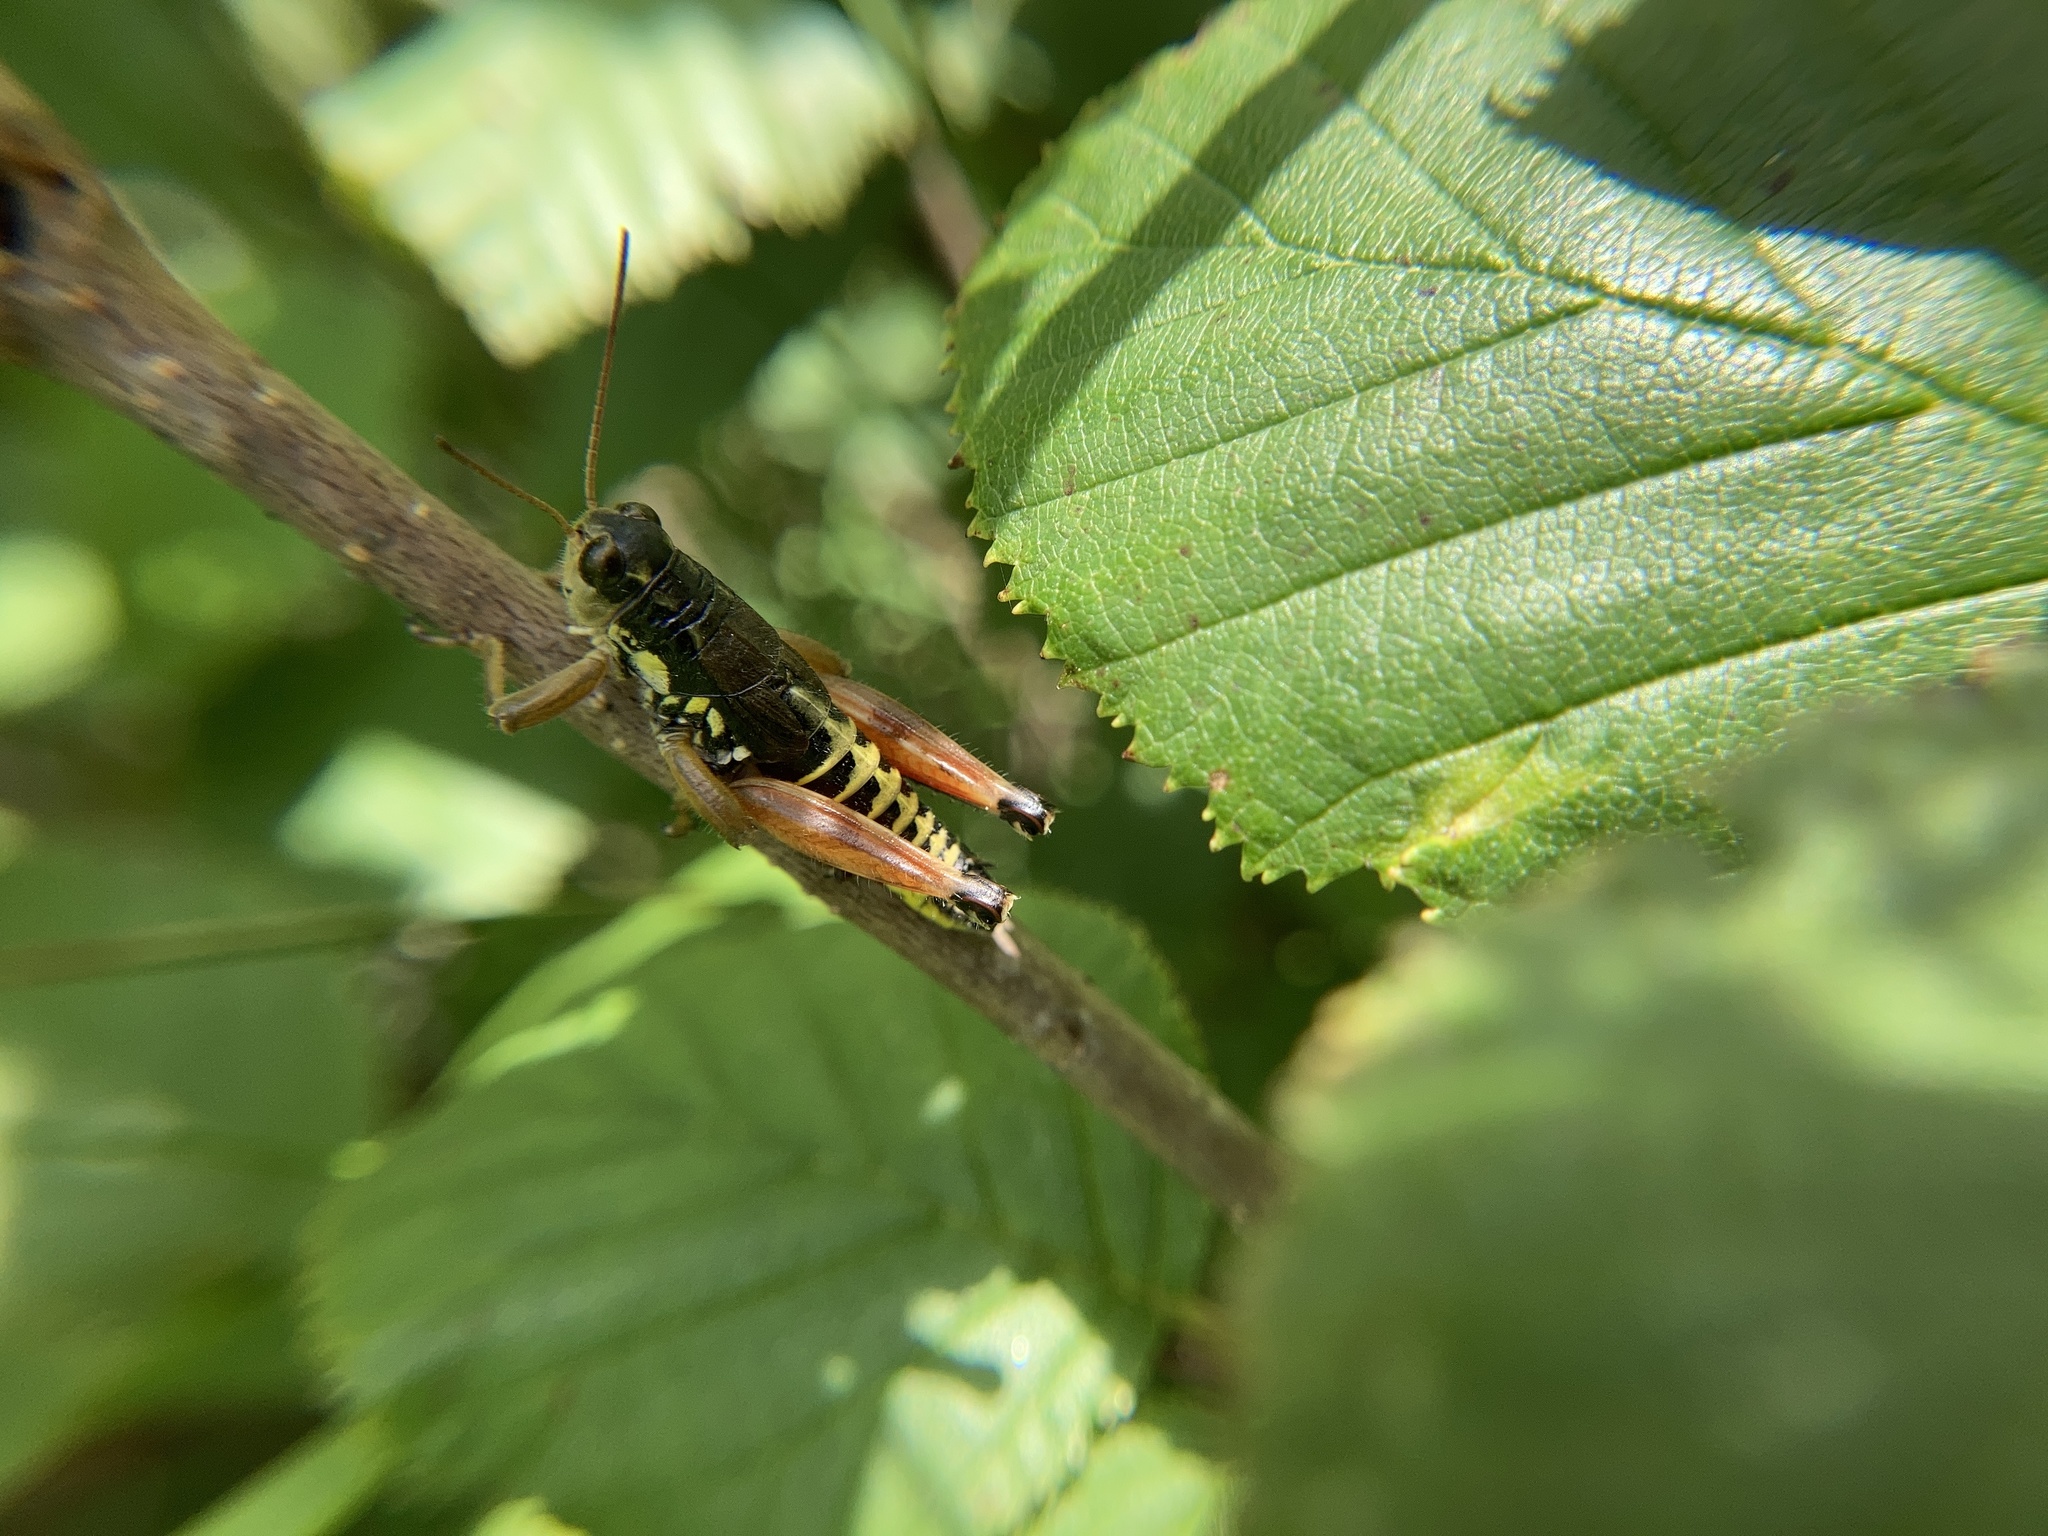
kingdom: Animalia
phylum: Arthropoda
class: Insecta
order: Orthoptera
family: Acrididae
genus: Podisma
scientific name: Podisma pedestris
